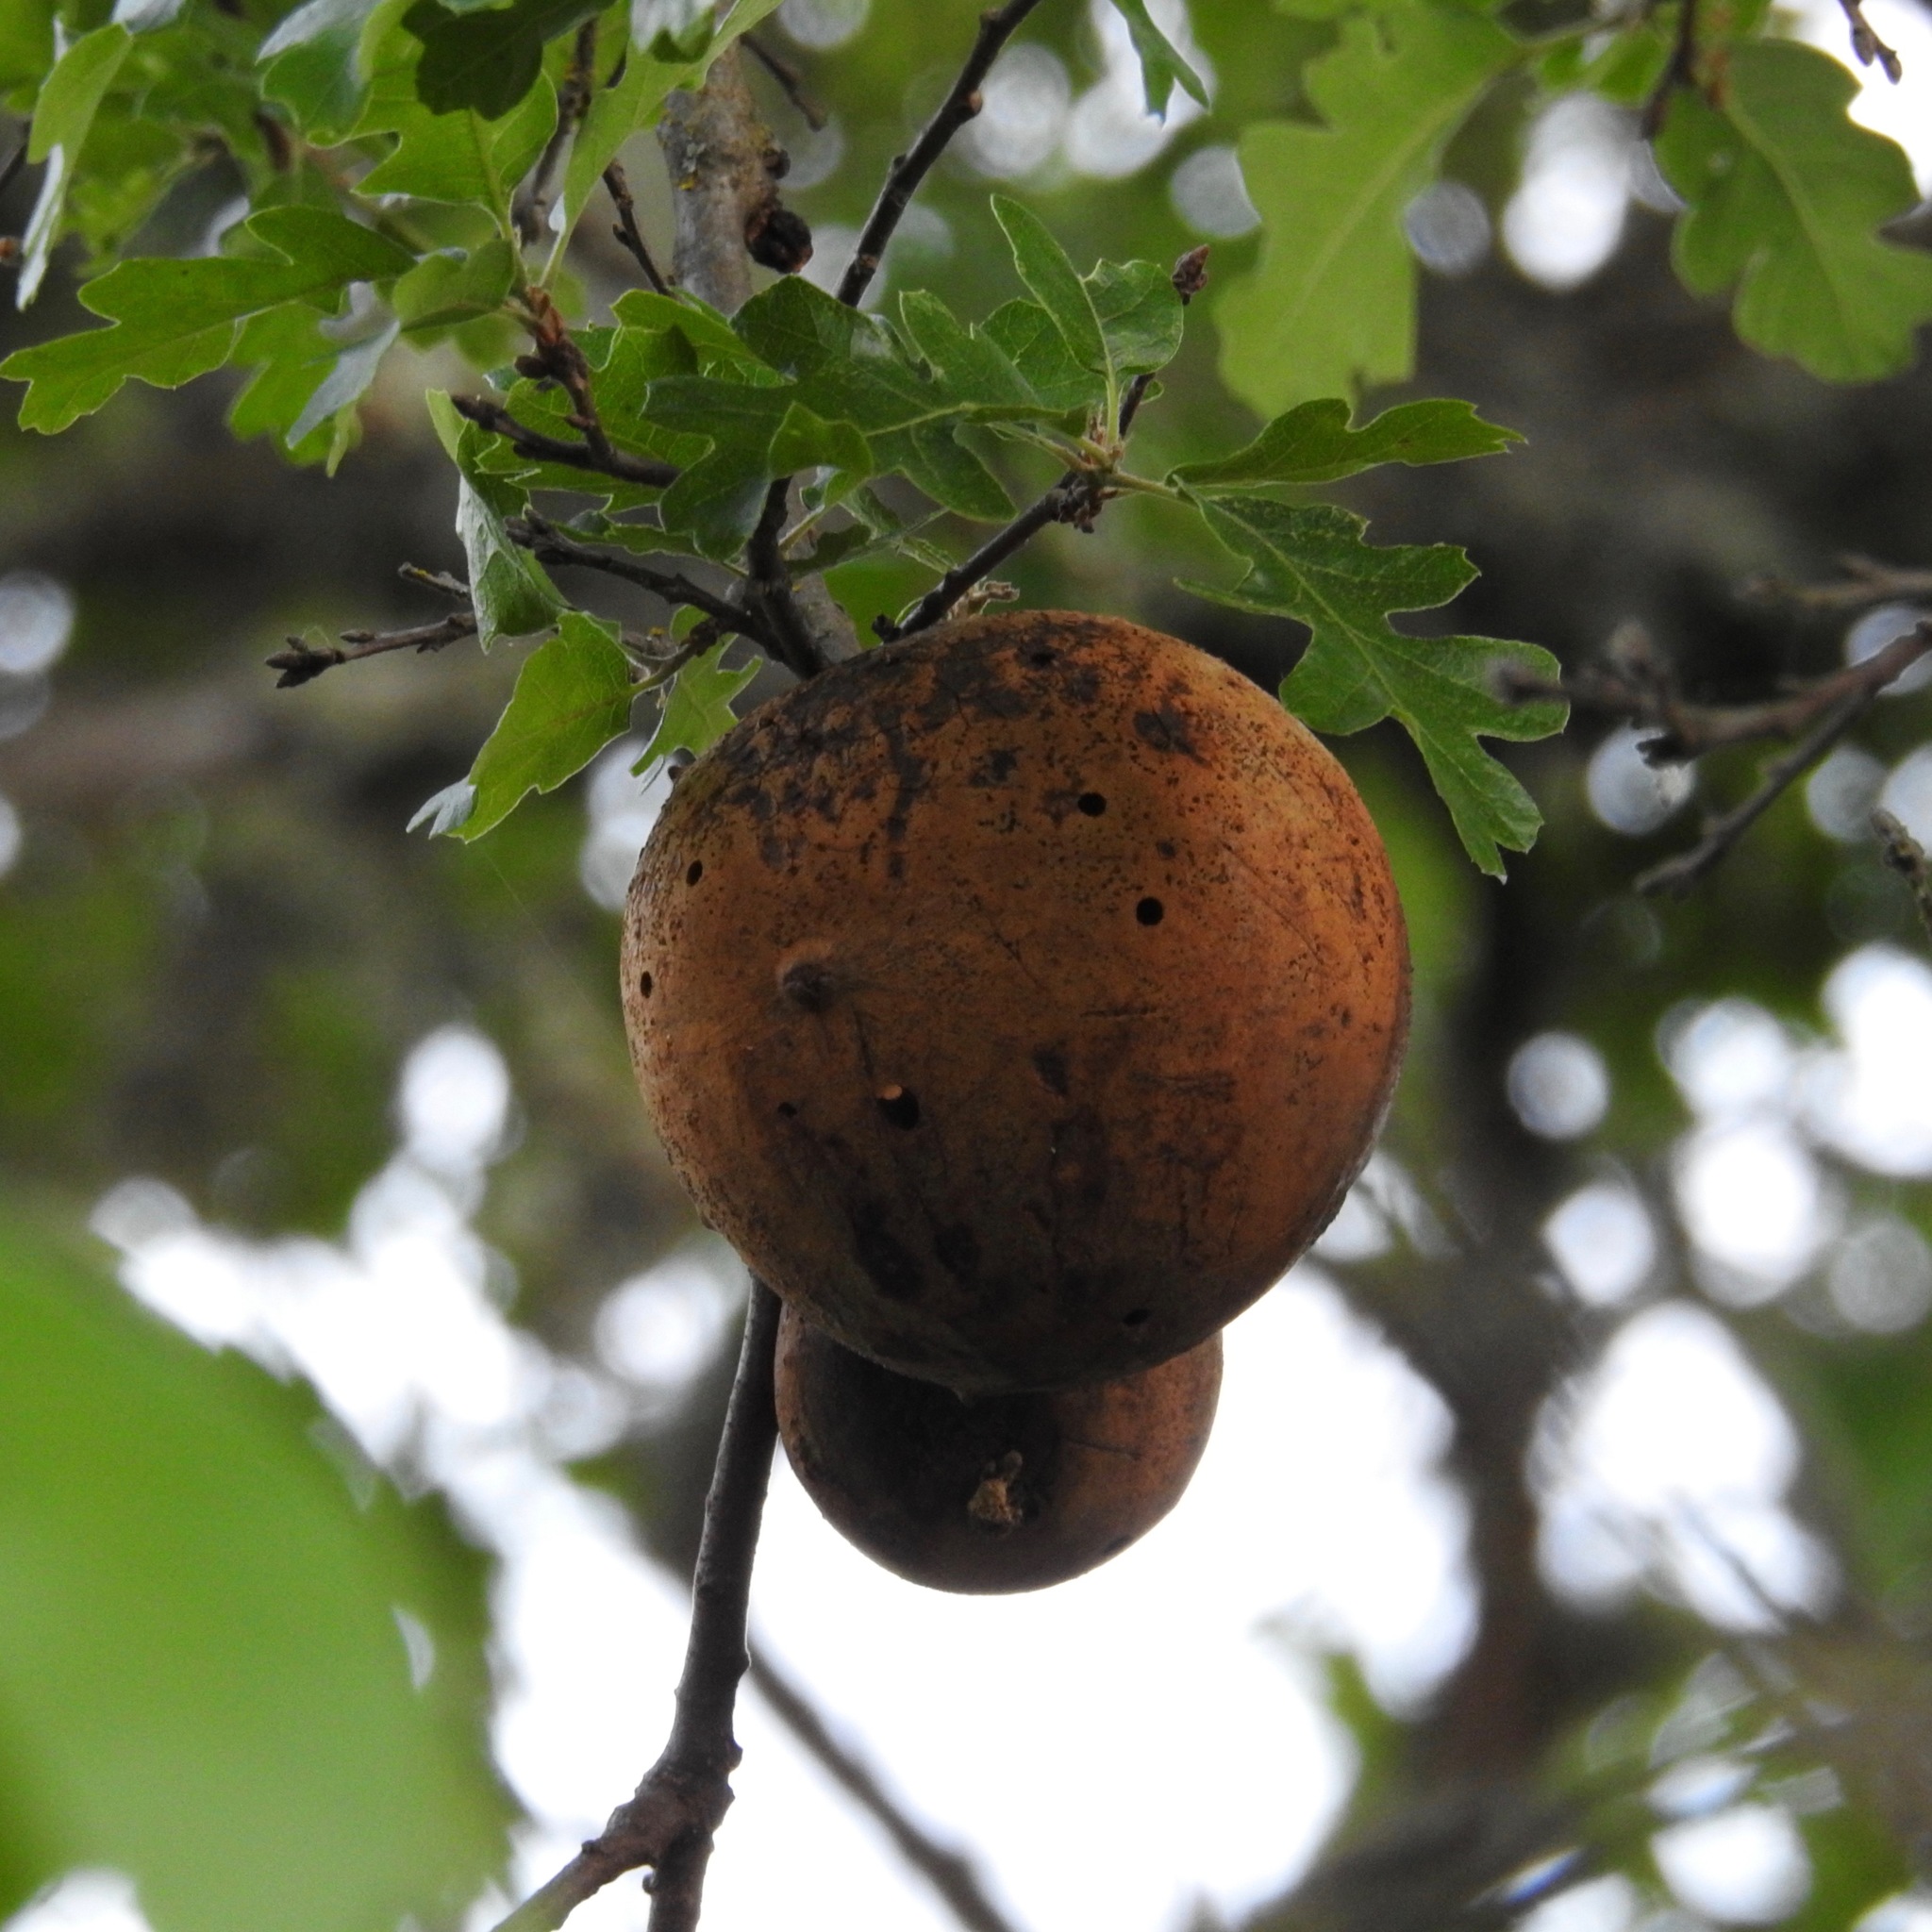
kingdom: Animalia
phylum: Arthropoda
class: Insecta
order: Hymenoptera
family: Cynipidae
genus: Andricus
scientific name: Andricus quercuscalifornicus
